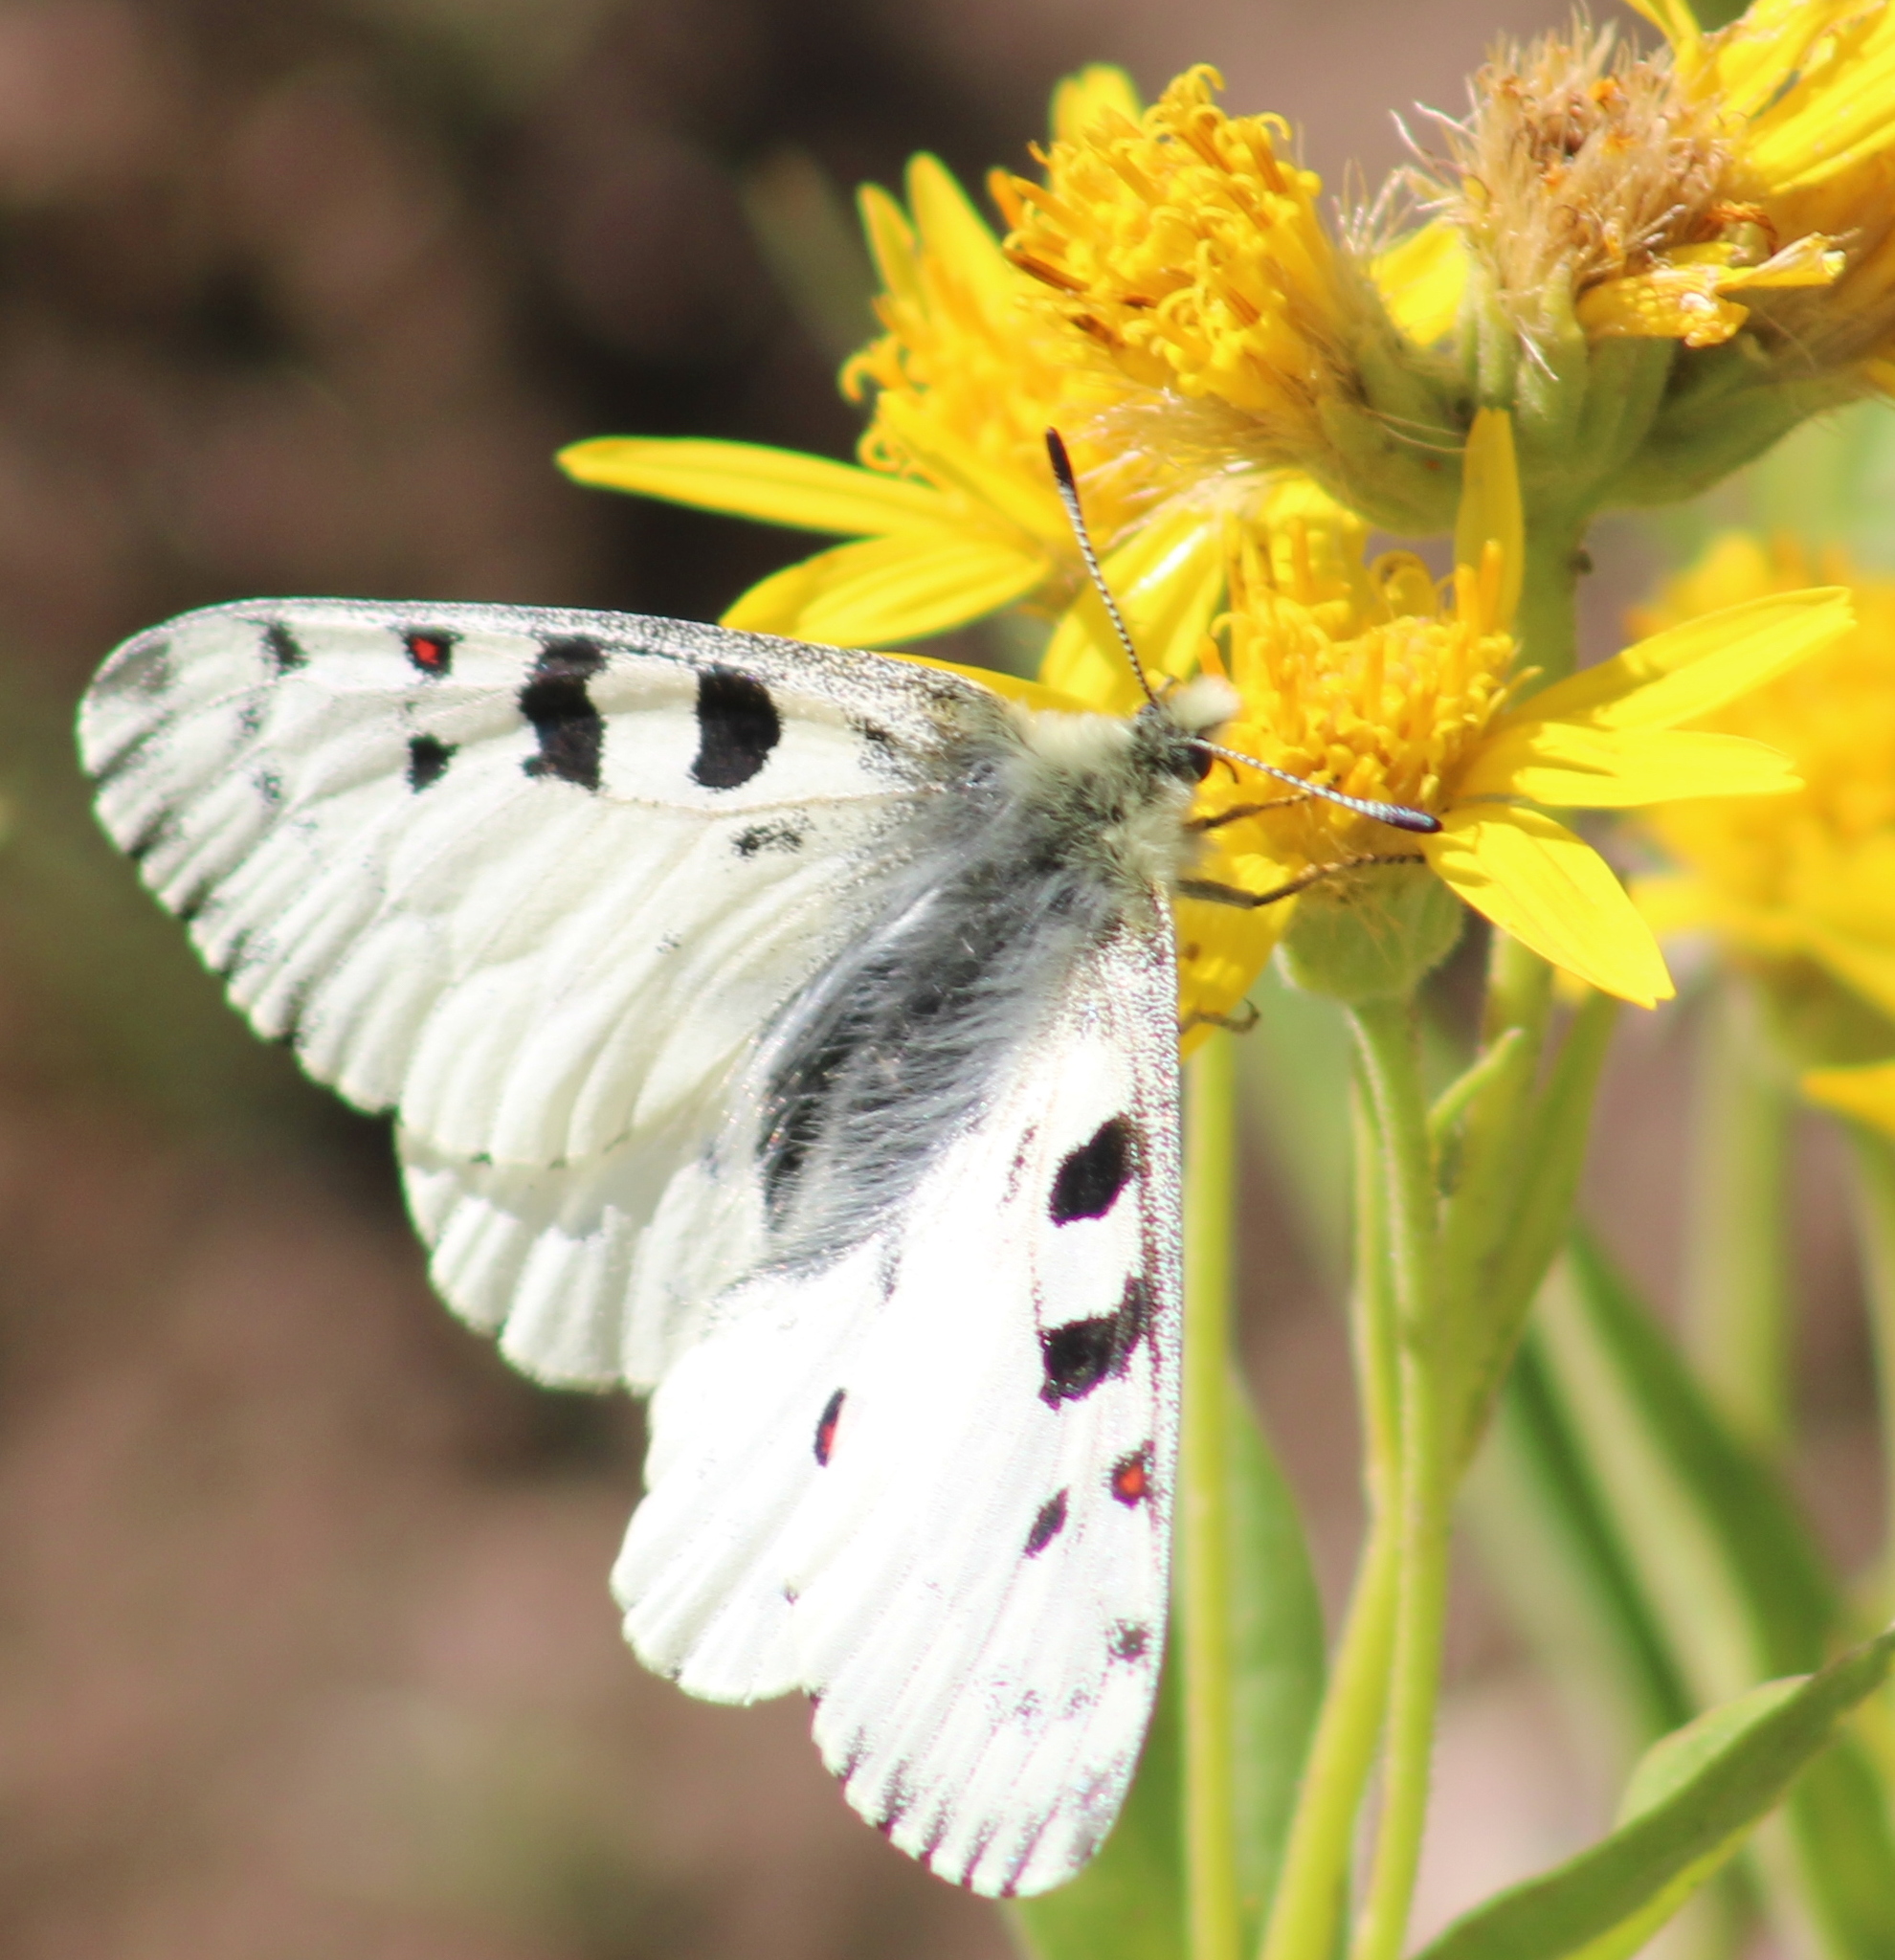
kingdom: Animalia
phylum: Arthropoda
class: Insecta
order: Lepidoptera
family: Papilionidae
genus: Parnassius
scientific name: Parnassius smintheus
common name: Mountain parnassian
